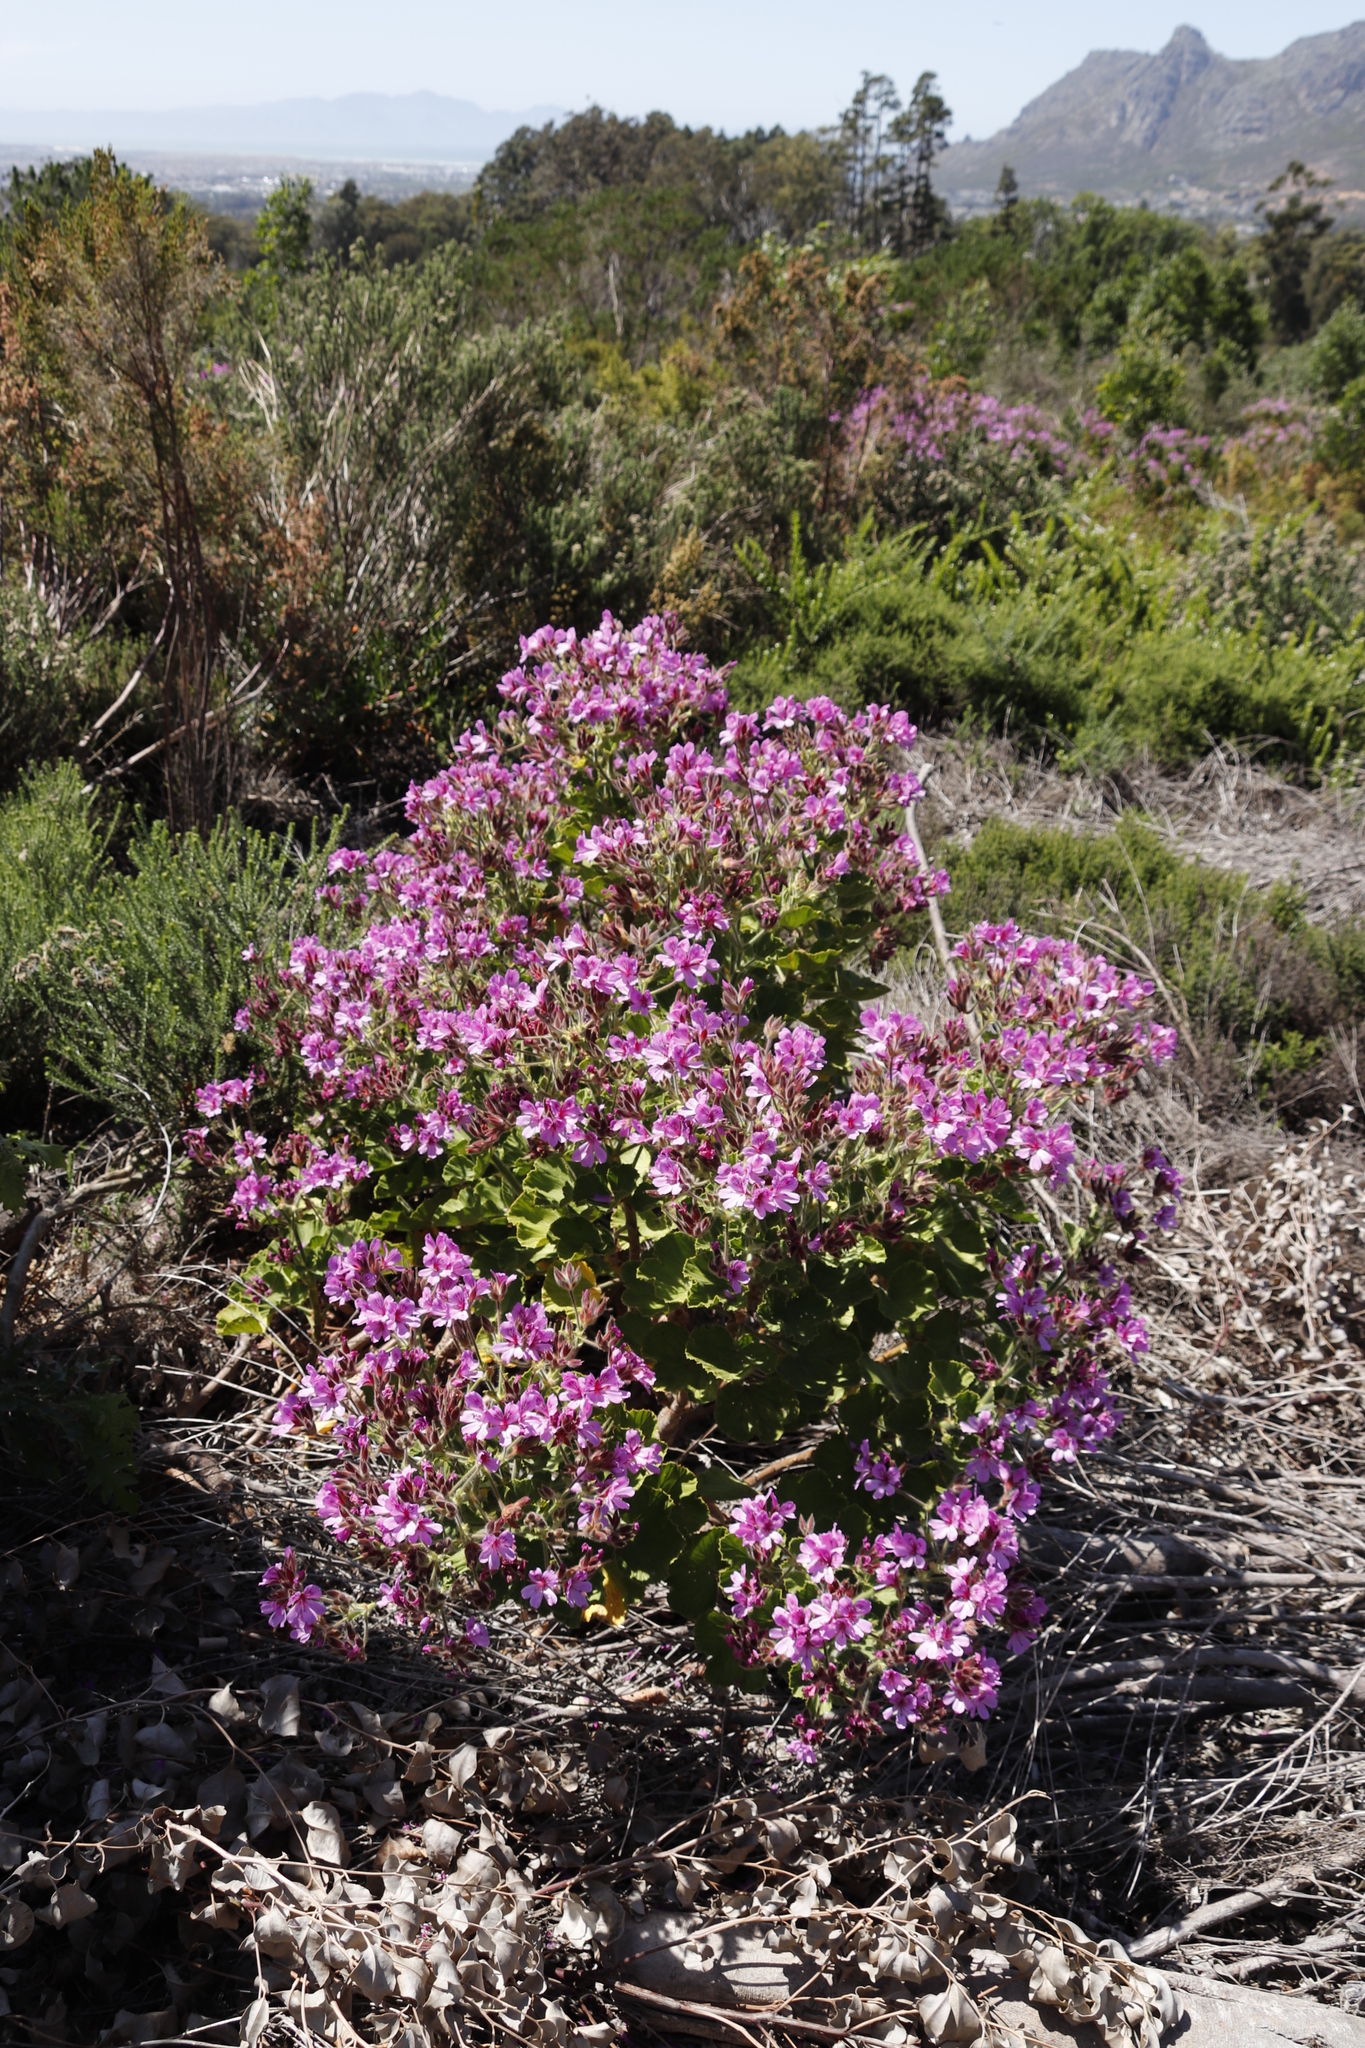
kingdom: Plantae
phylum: Tracheophyta
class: Magnoliopsida
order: Geraniales
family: Geraniaceae
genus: Pelargonium
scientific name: Pelargonium cucullatum
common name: Tree pelargonium
